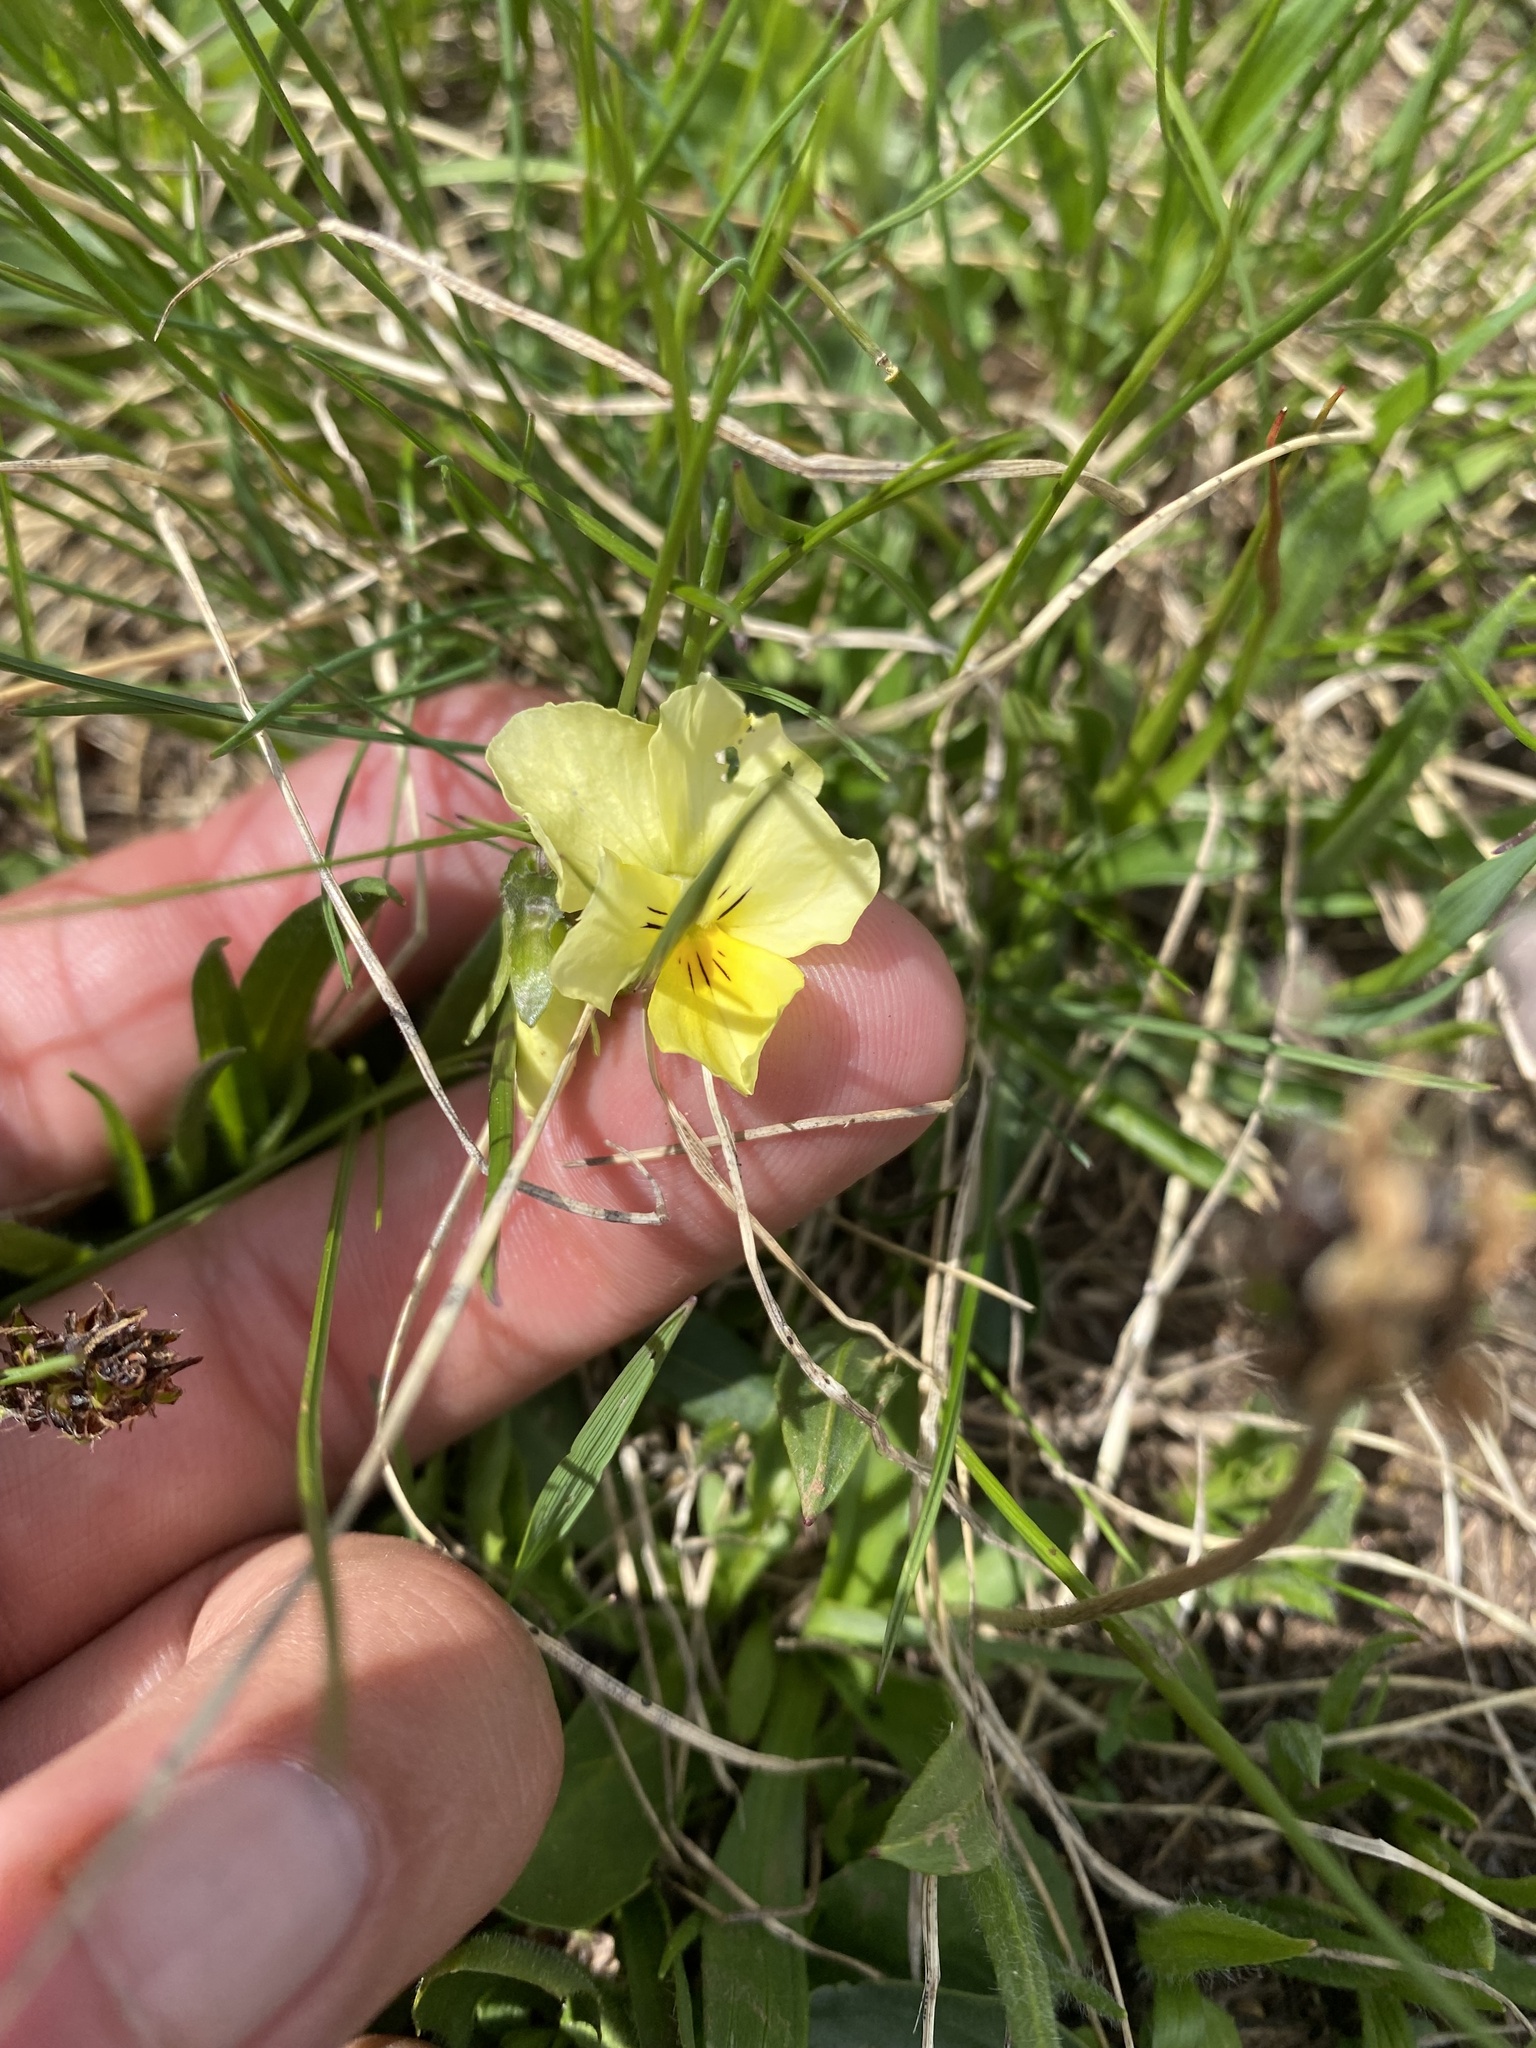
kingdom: Plantae
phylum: Tracheophyta
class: Magnoliopsida
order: Malpighiales
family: Violaceae
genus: Viola
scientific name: Viola oreades
